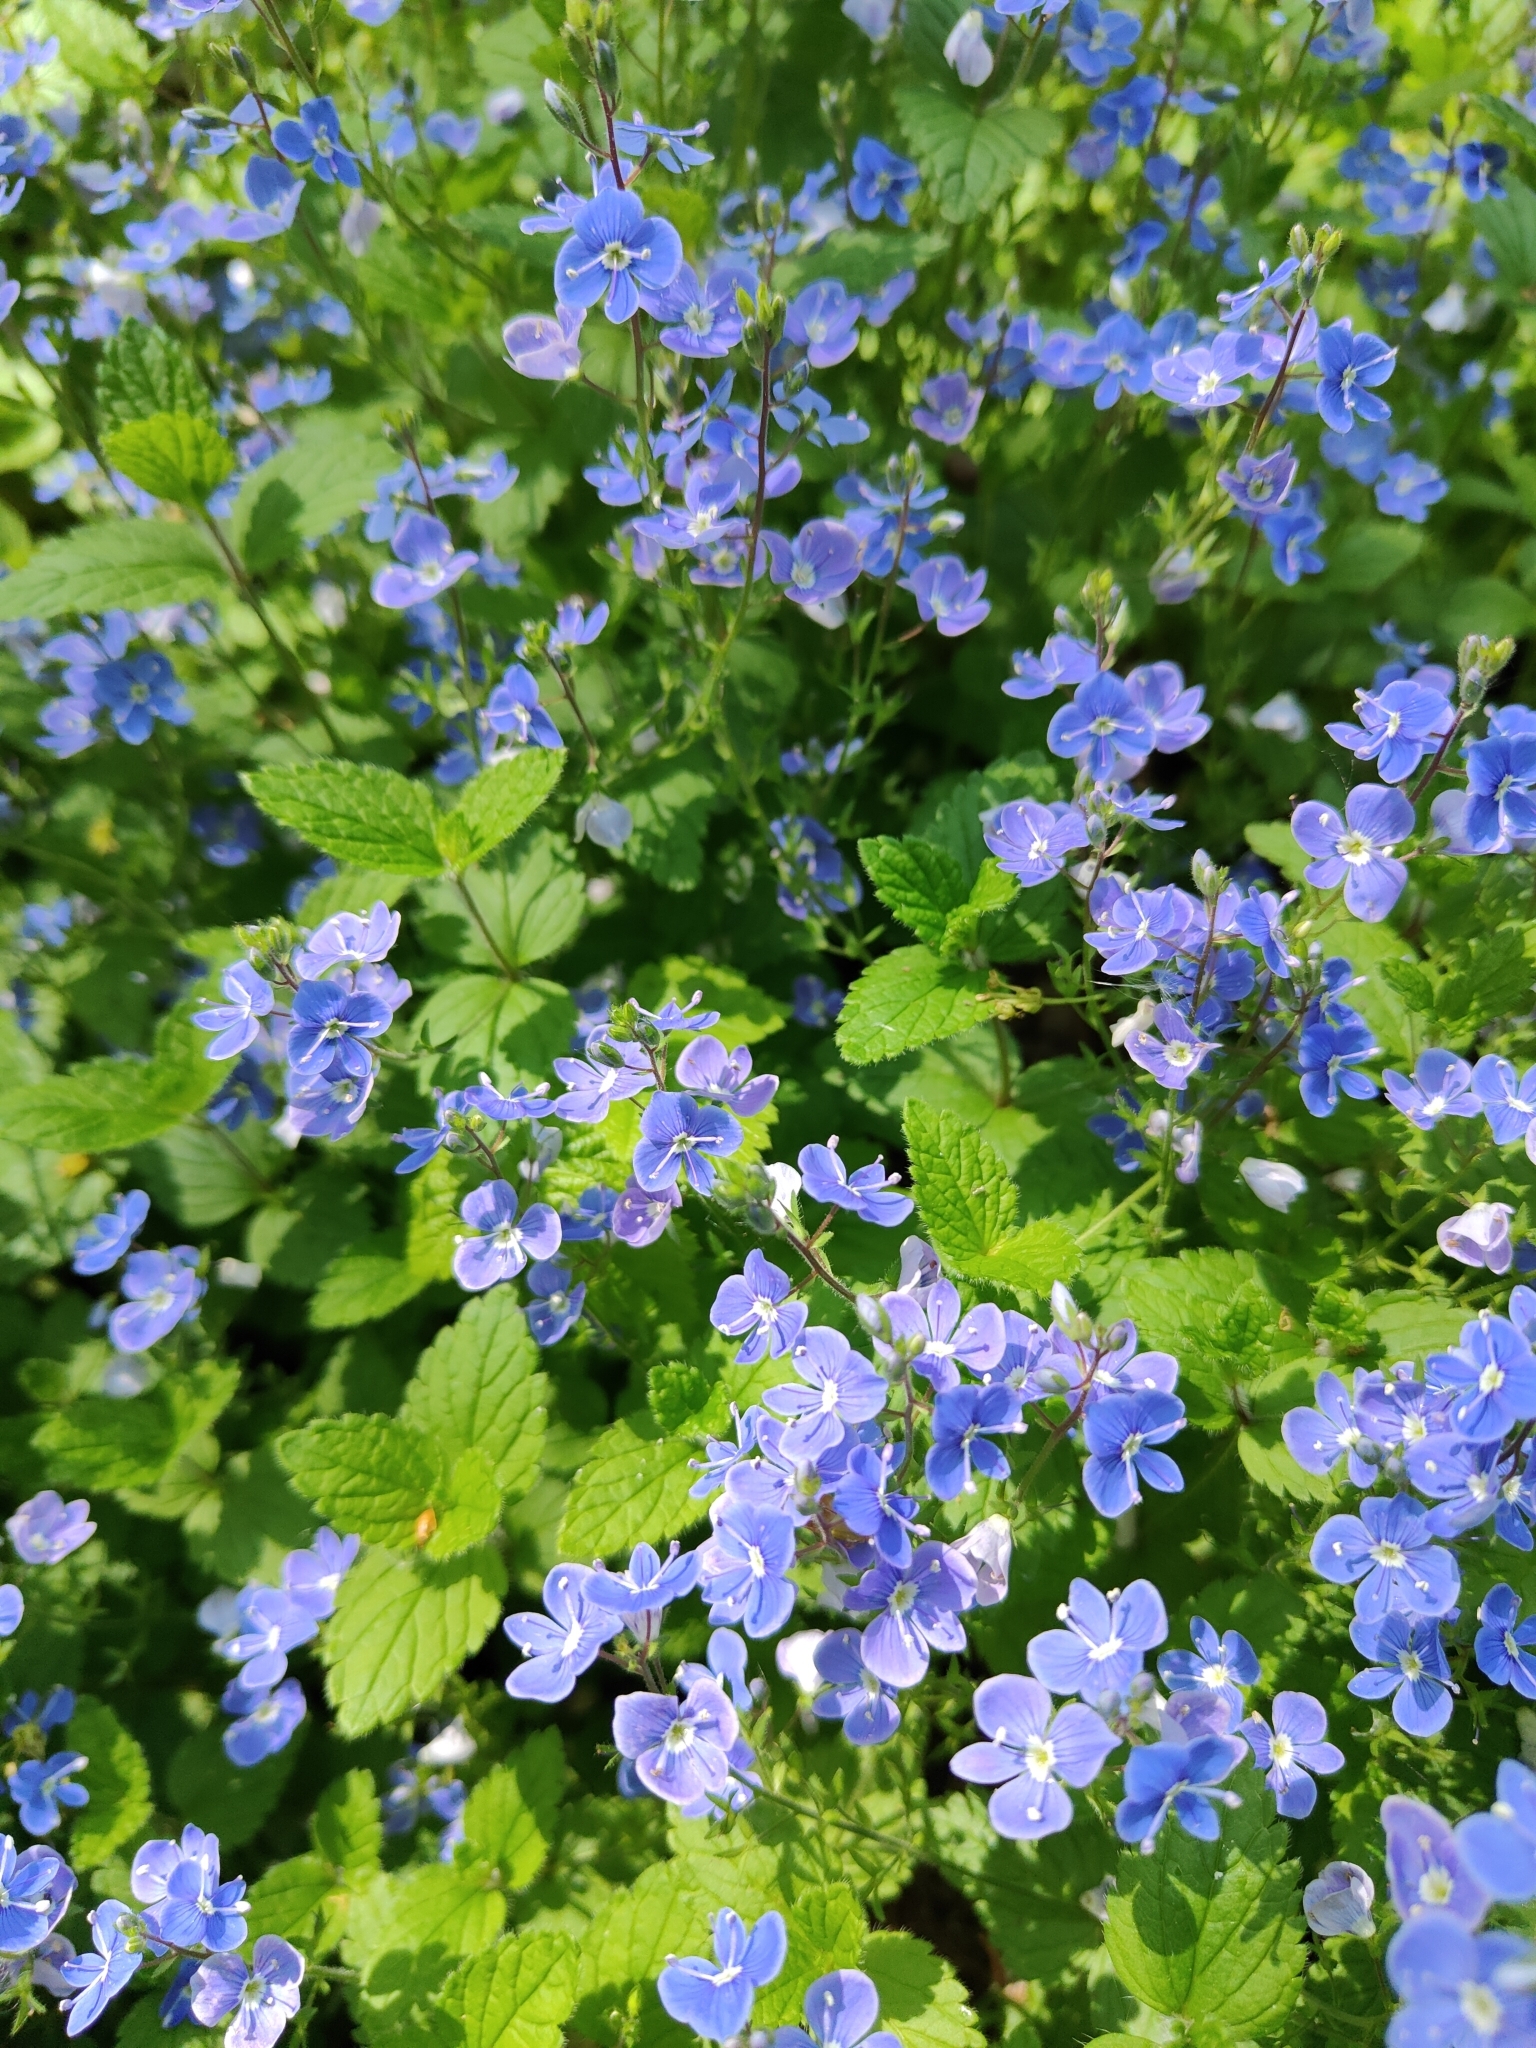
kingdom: Plantae
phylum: Tracheophyta
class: Magnoliopsida
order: Lamiales
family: Plantaginaceae
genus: Veronica
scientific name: Veronica chamaedrys
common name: Germander speedwell
